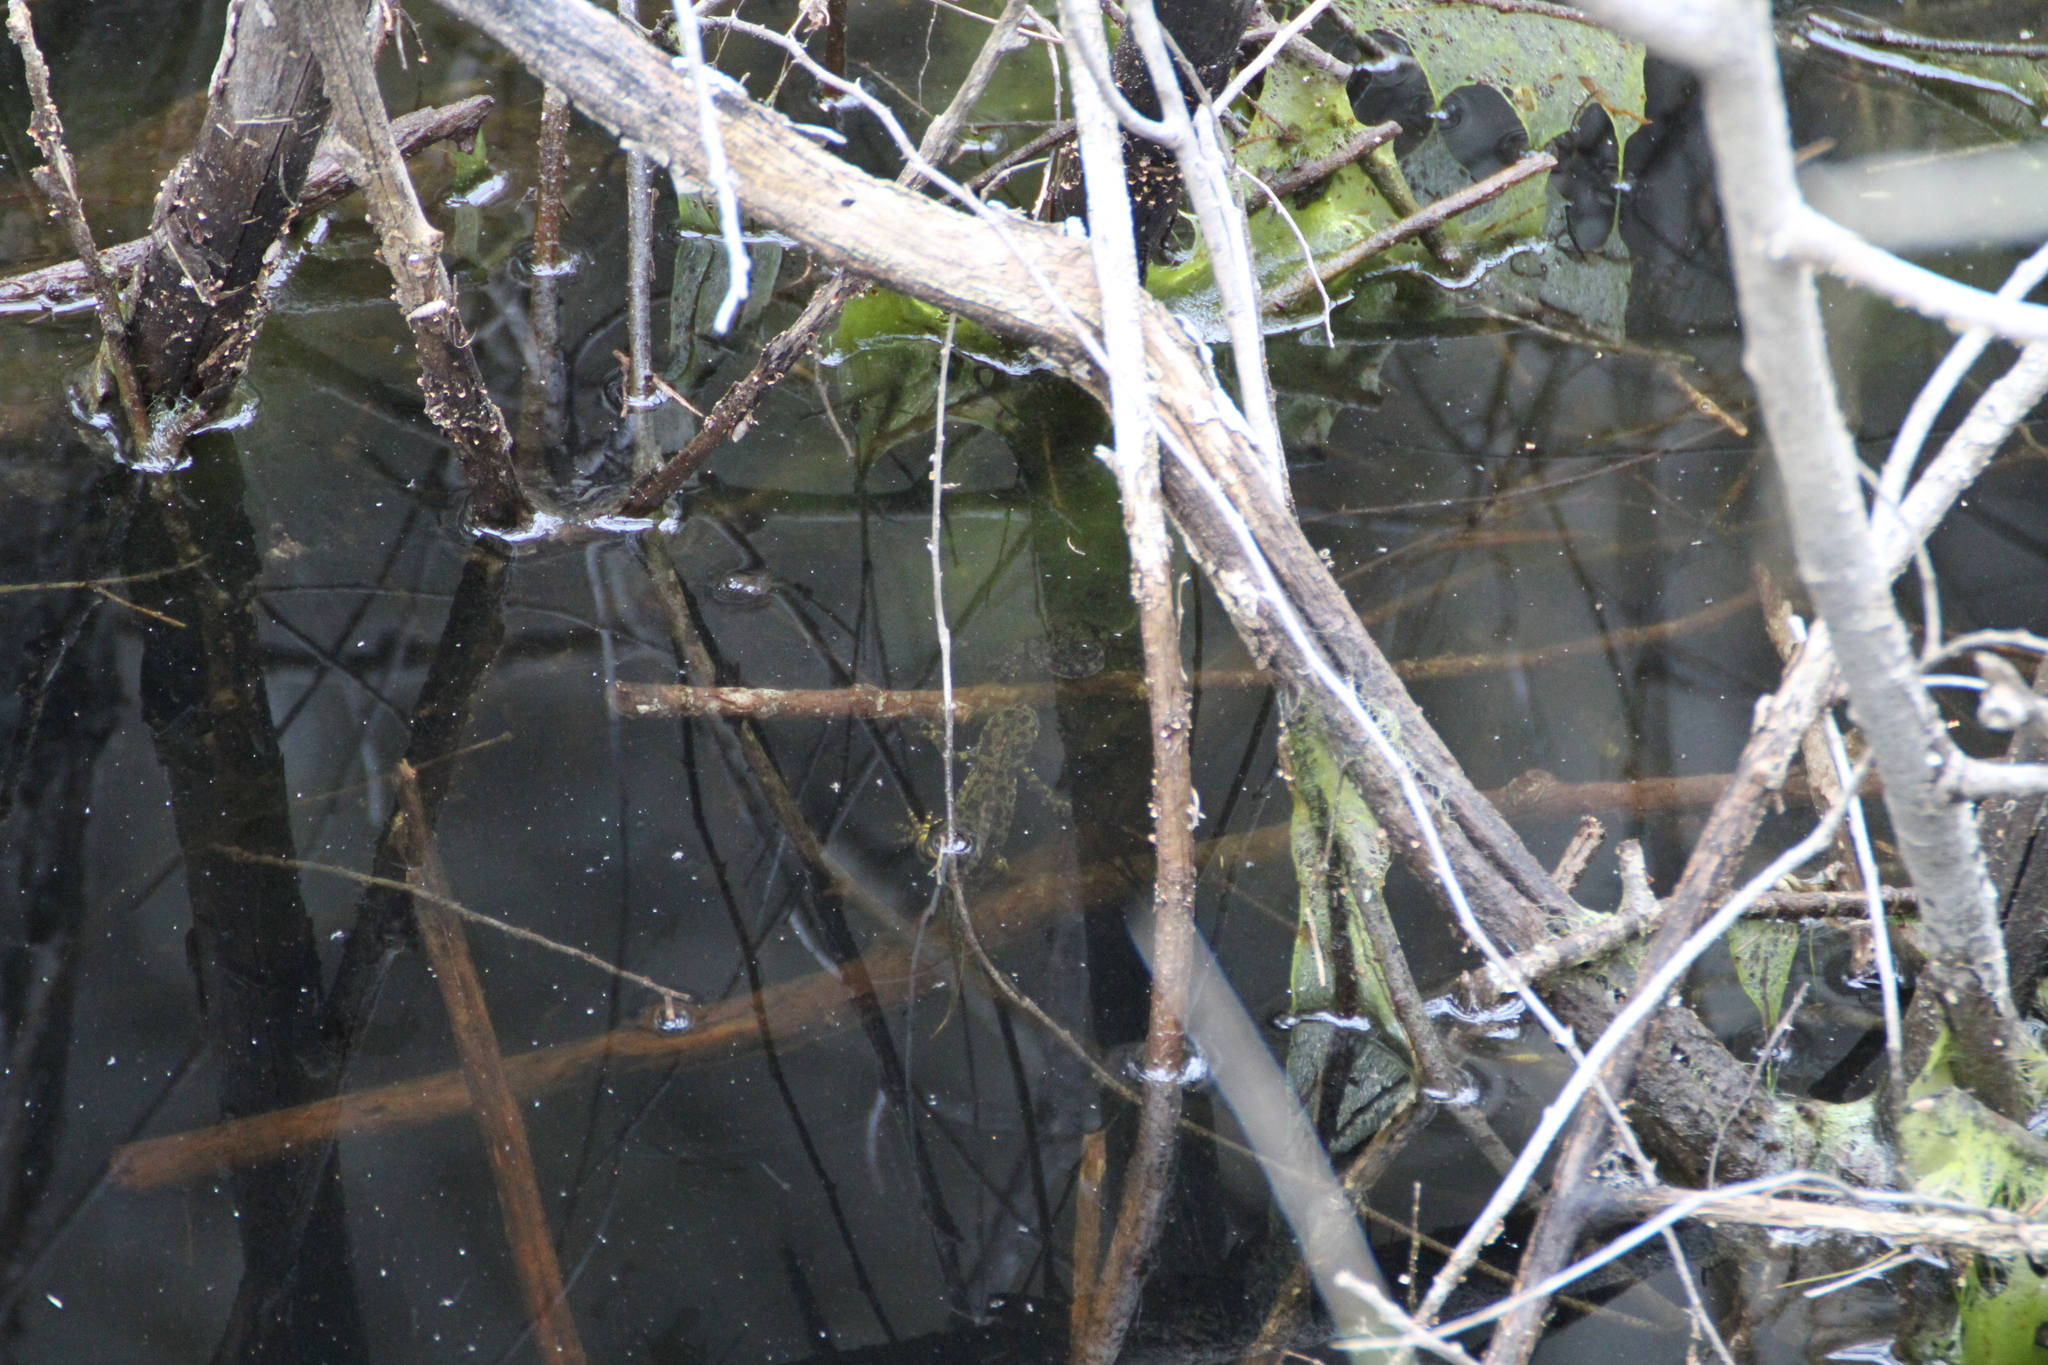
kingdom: Animalia
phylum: Chordata
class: Amphibia
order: Caudata
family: Salamandridae
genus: Triturus
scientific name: Triturus marmoratus
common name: Marbled newt
